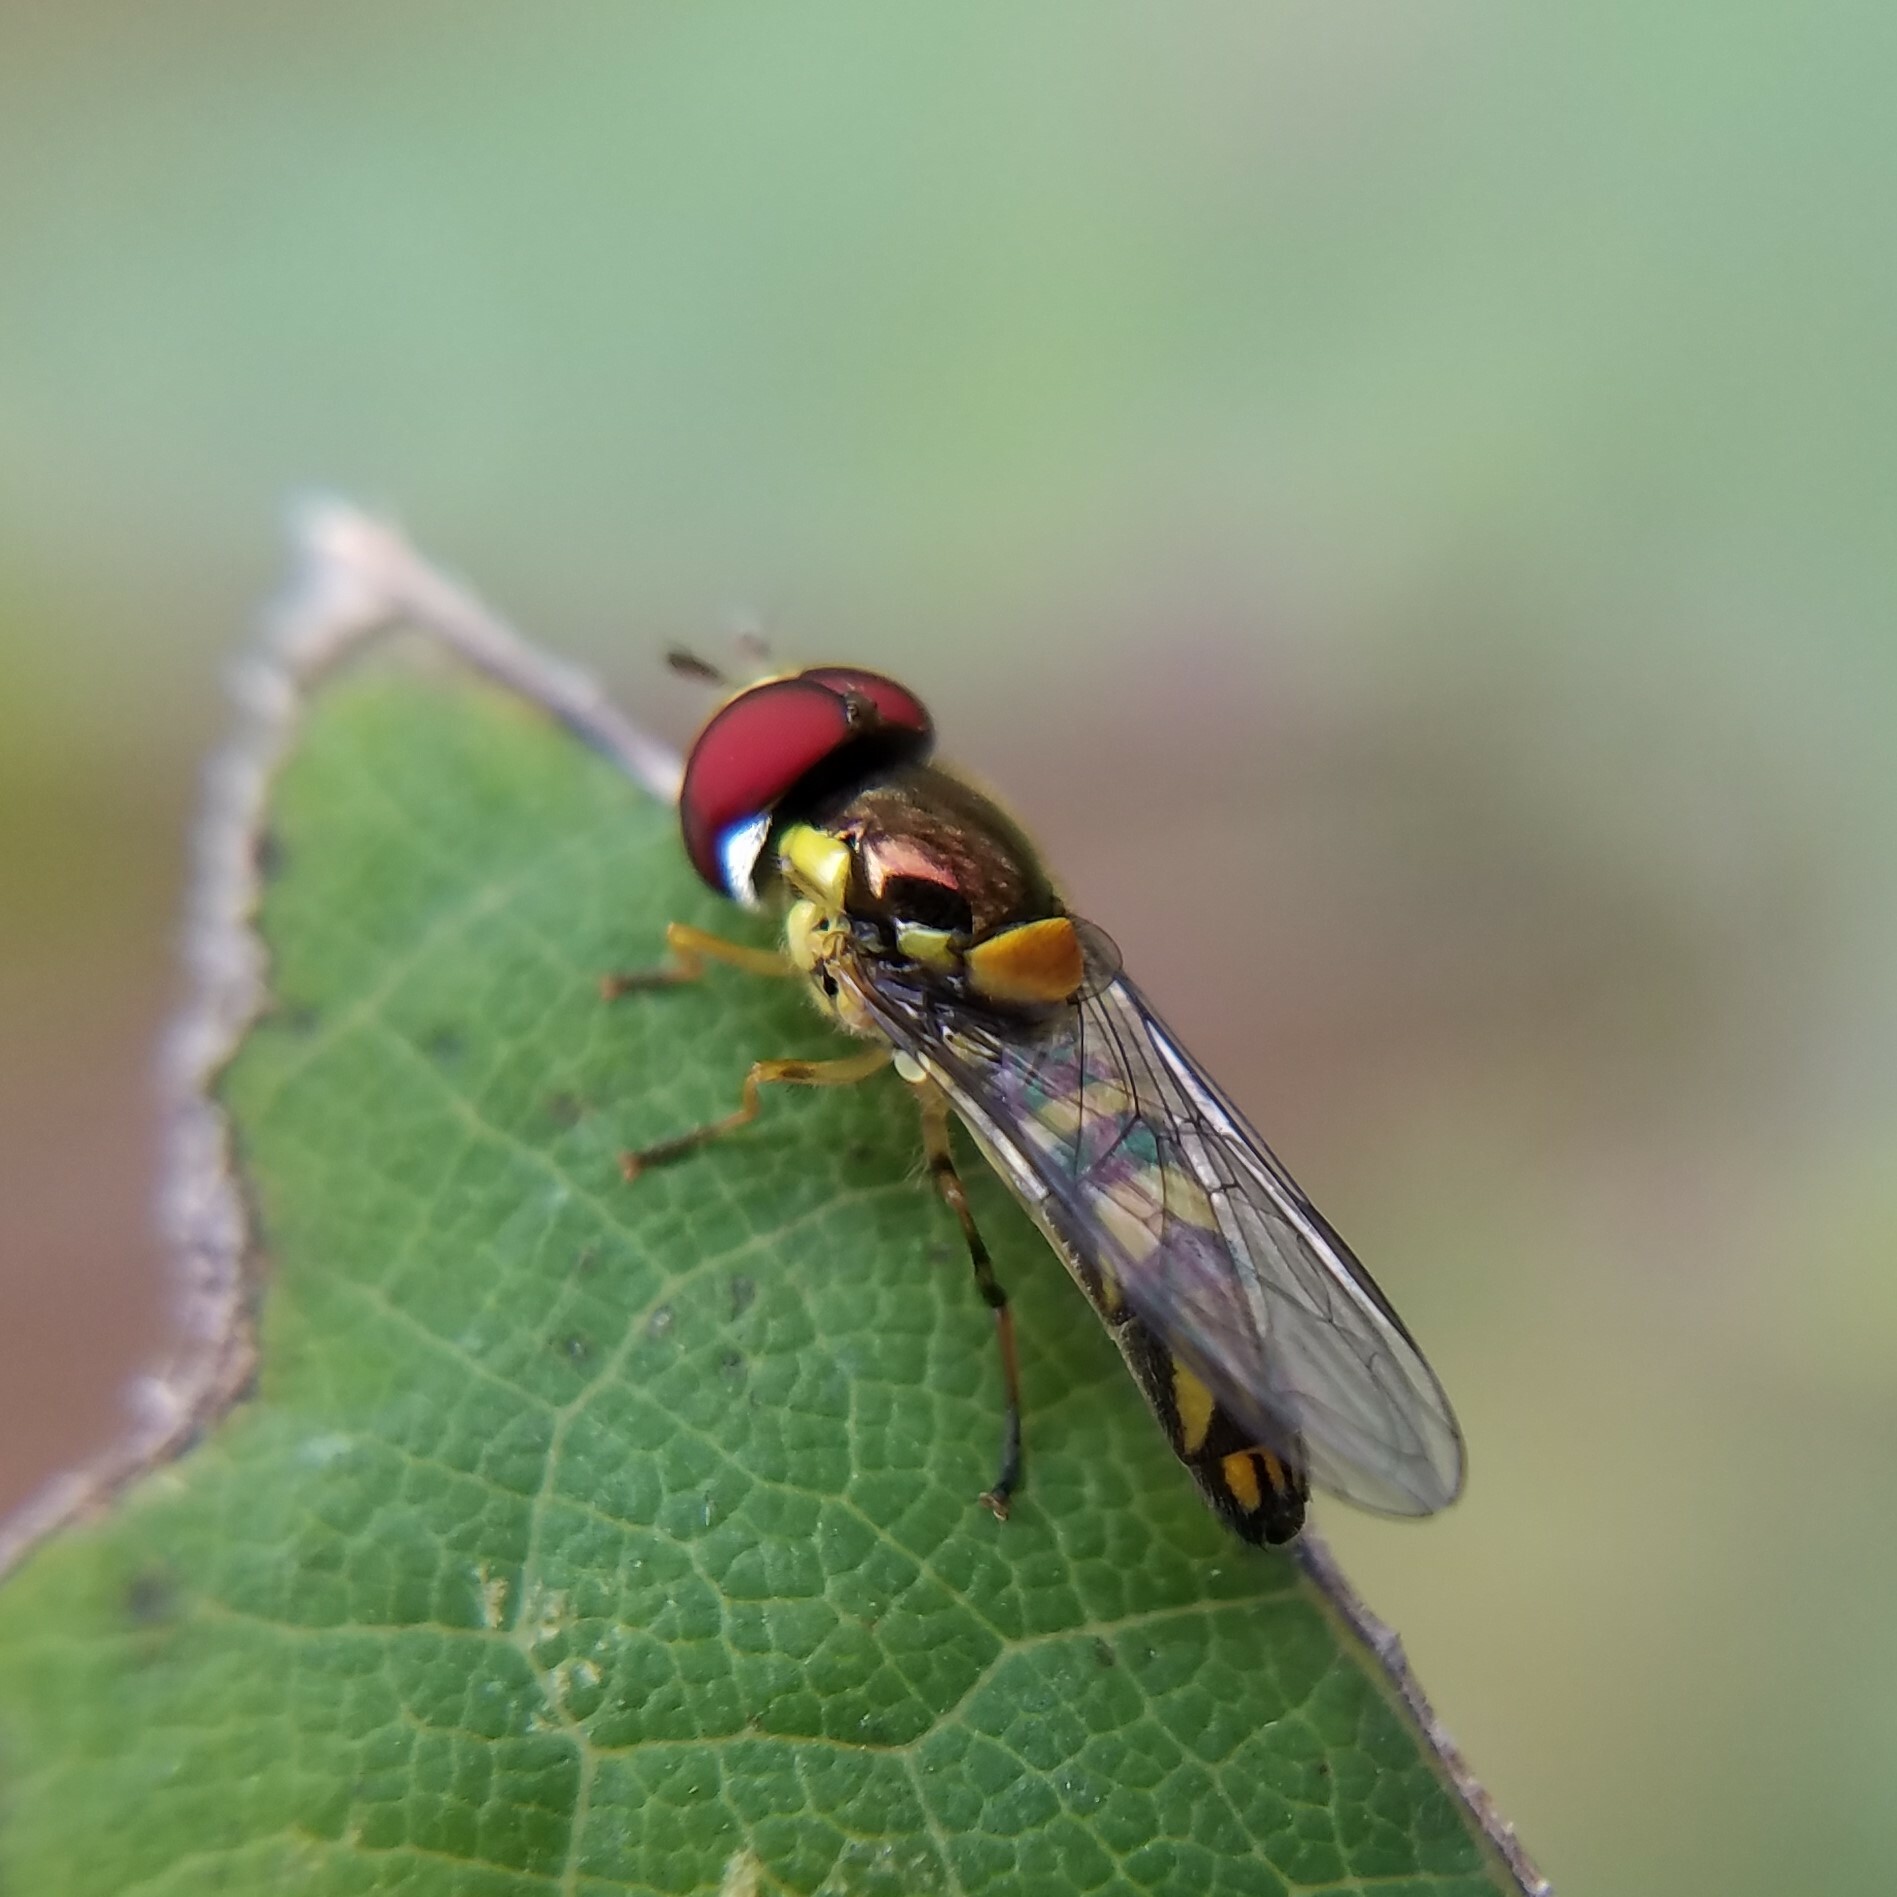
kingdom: Animalia
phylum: Arthropoda
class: Insecta
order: Diptera
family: Syrphidae
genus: Allograpta
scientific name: Allograpta obliqua
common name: Common oblique syrphid
